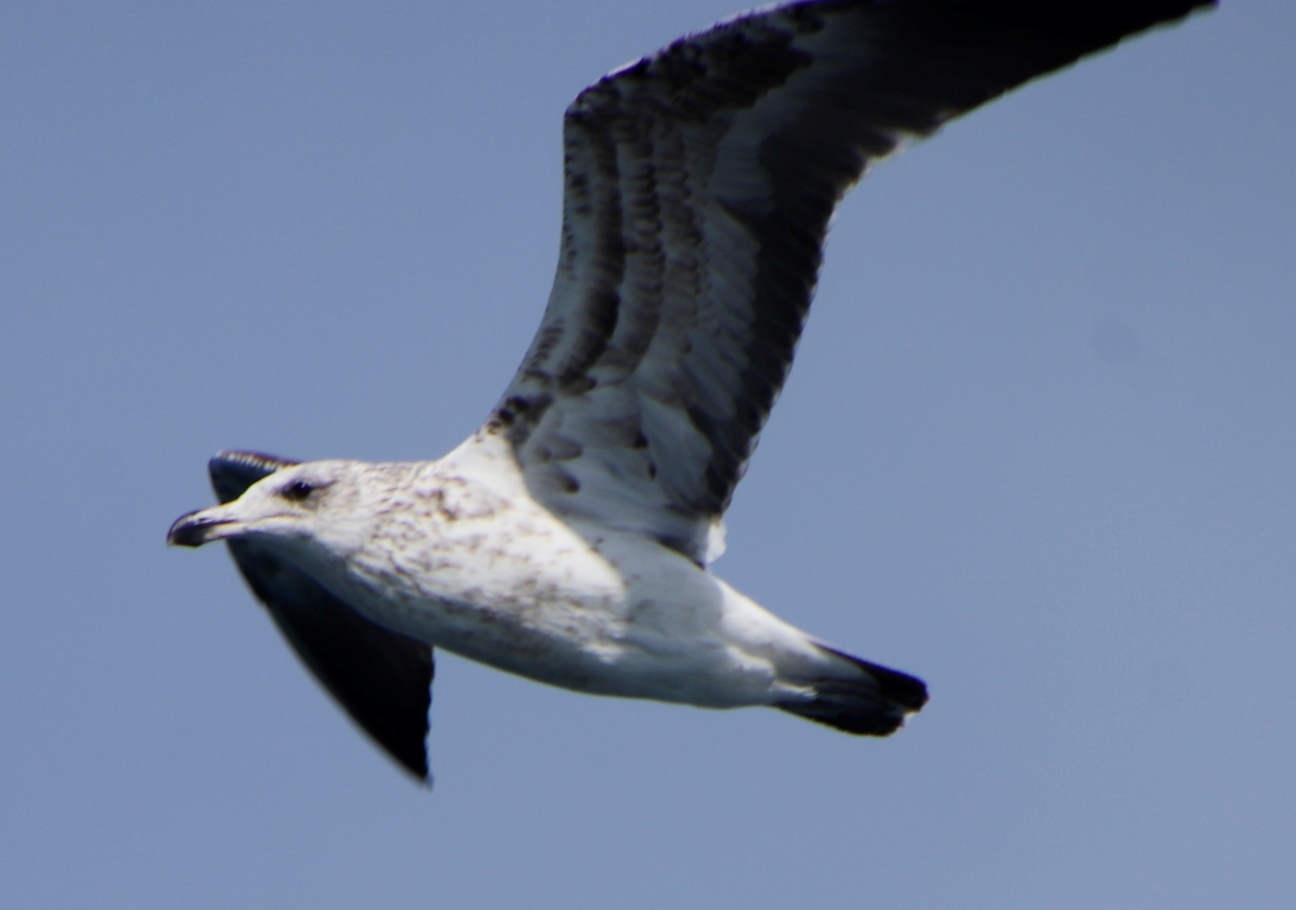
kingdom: Animalia
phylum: Chordata
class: Aves
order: Charadriiformes
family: Laridae
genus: Larus
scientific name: Larus dominicanus
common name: Kelp gull
